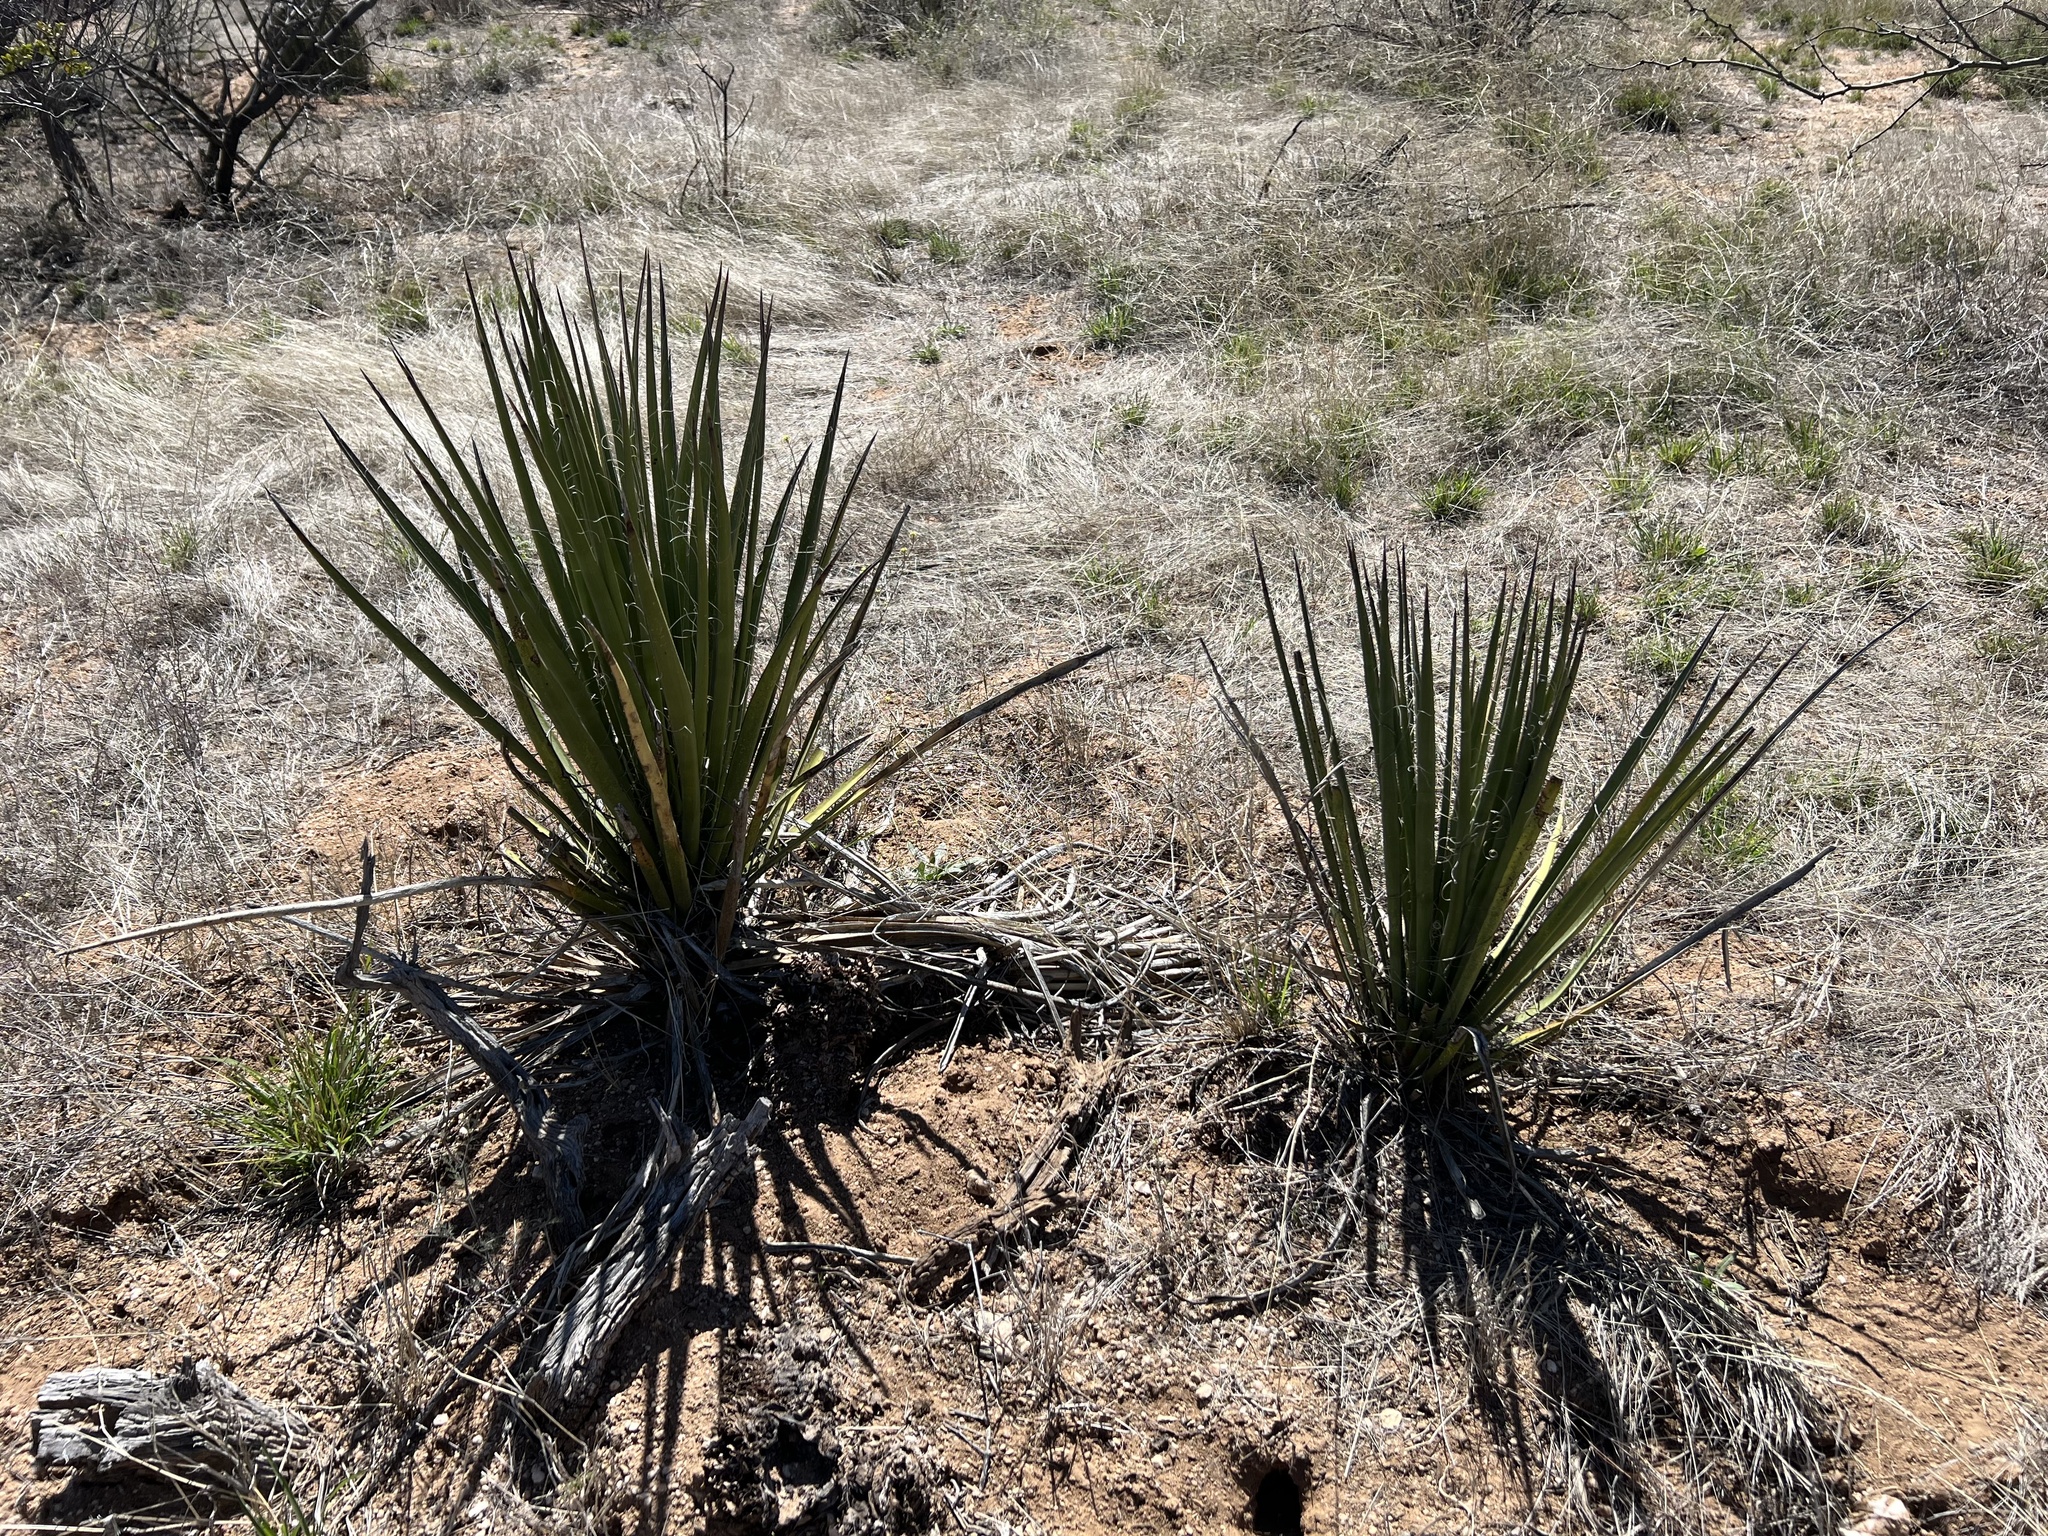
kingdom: Plantae
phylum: Tracheophyta
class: Liliopsida
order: Asparagales
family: Asparagaceae
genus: Yucca
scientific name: Yucca baccata
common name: Banana yucca
